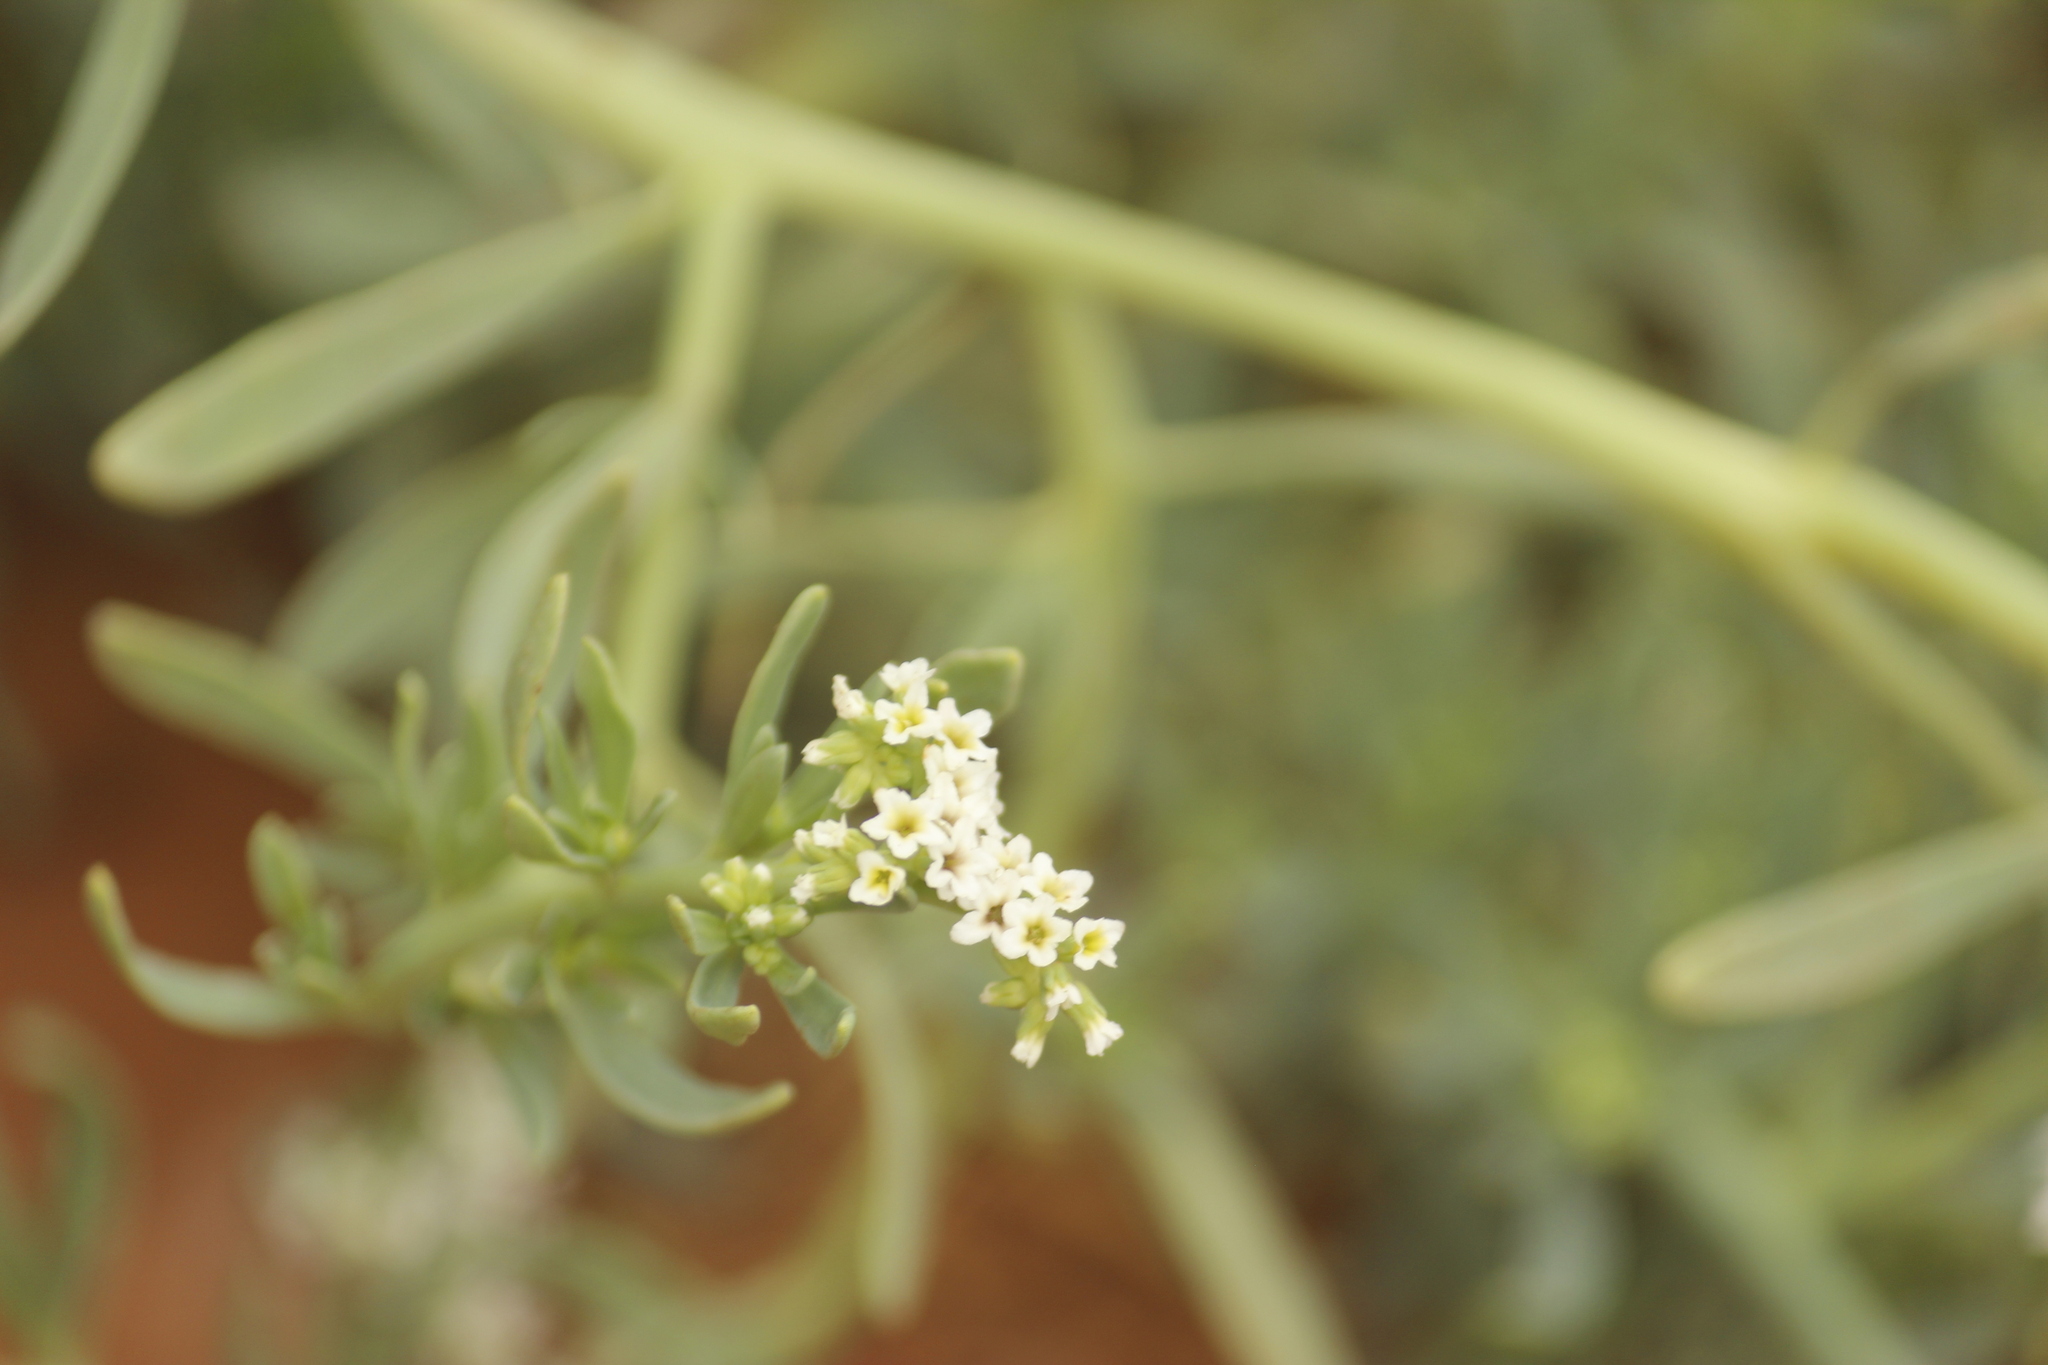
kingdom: Plantae
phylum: Tracheophyta
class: Magnoliopsida
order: Boraginales
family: Heliotropiaceae
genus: Heliotropium
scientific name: Heliotropium curassavicum
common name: Seaside heliotrope
